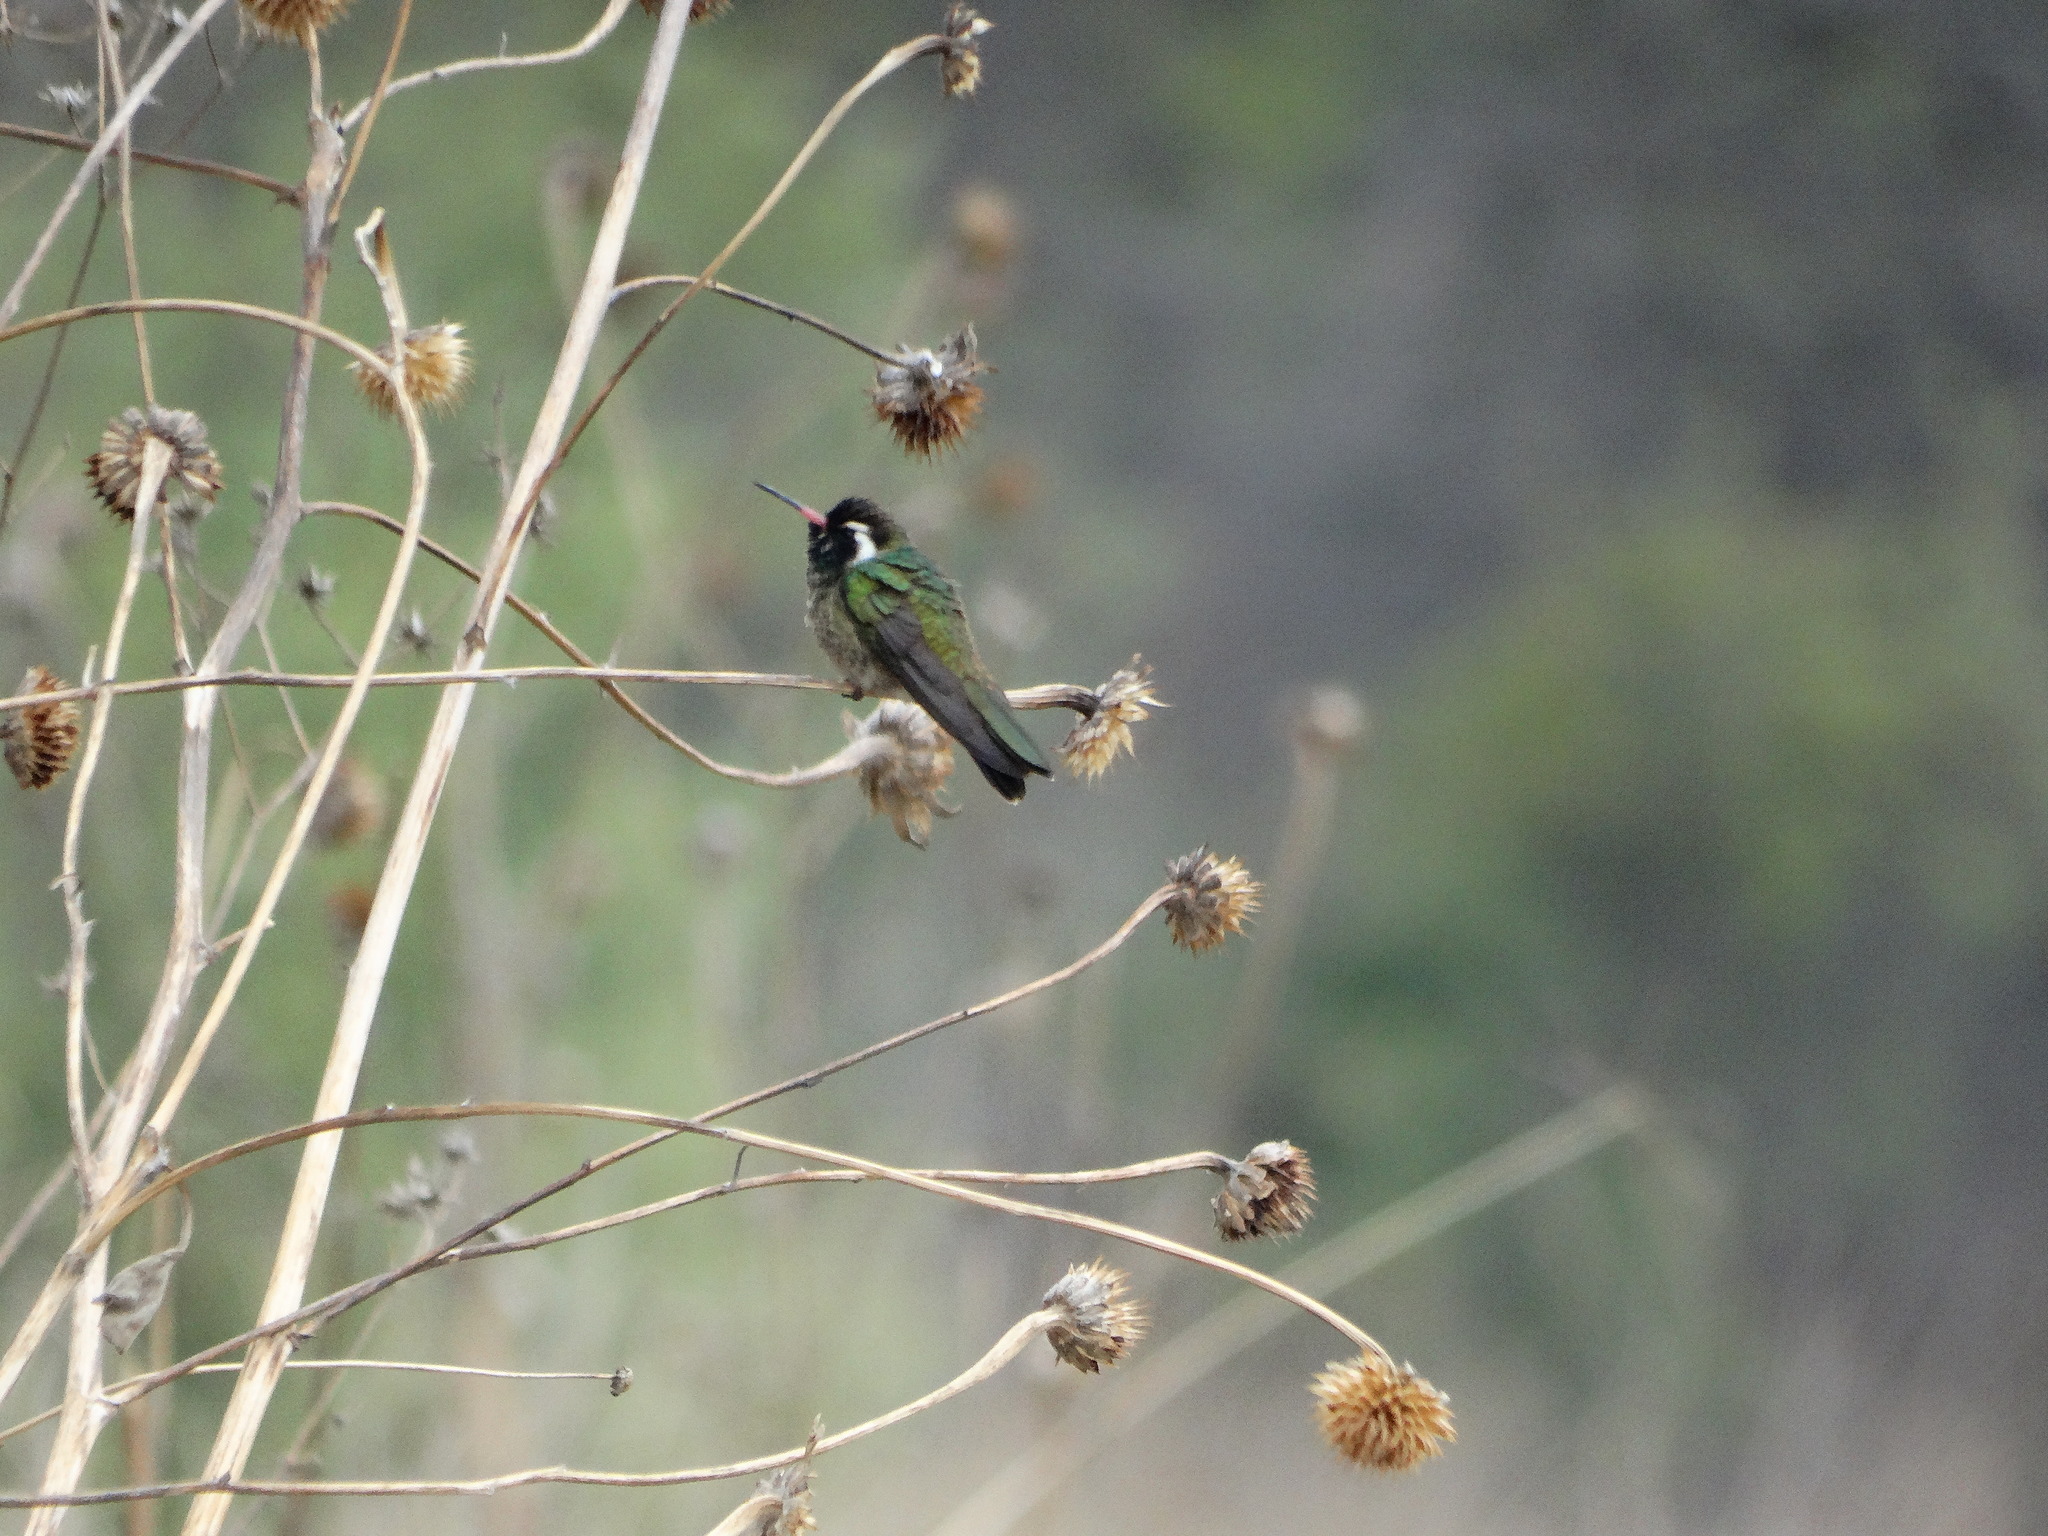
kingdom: Animalia
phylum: Chordata
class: Aves
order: Apodiformes
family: Trochilidae
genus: Basilinna
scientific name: Basilinna leucotis
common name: White-eared hummingbird
